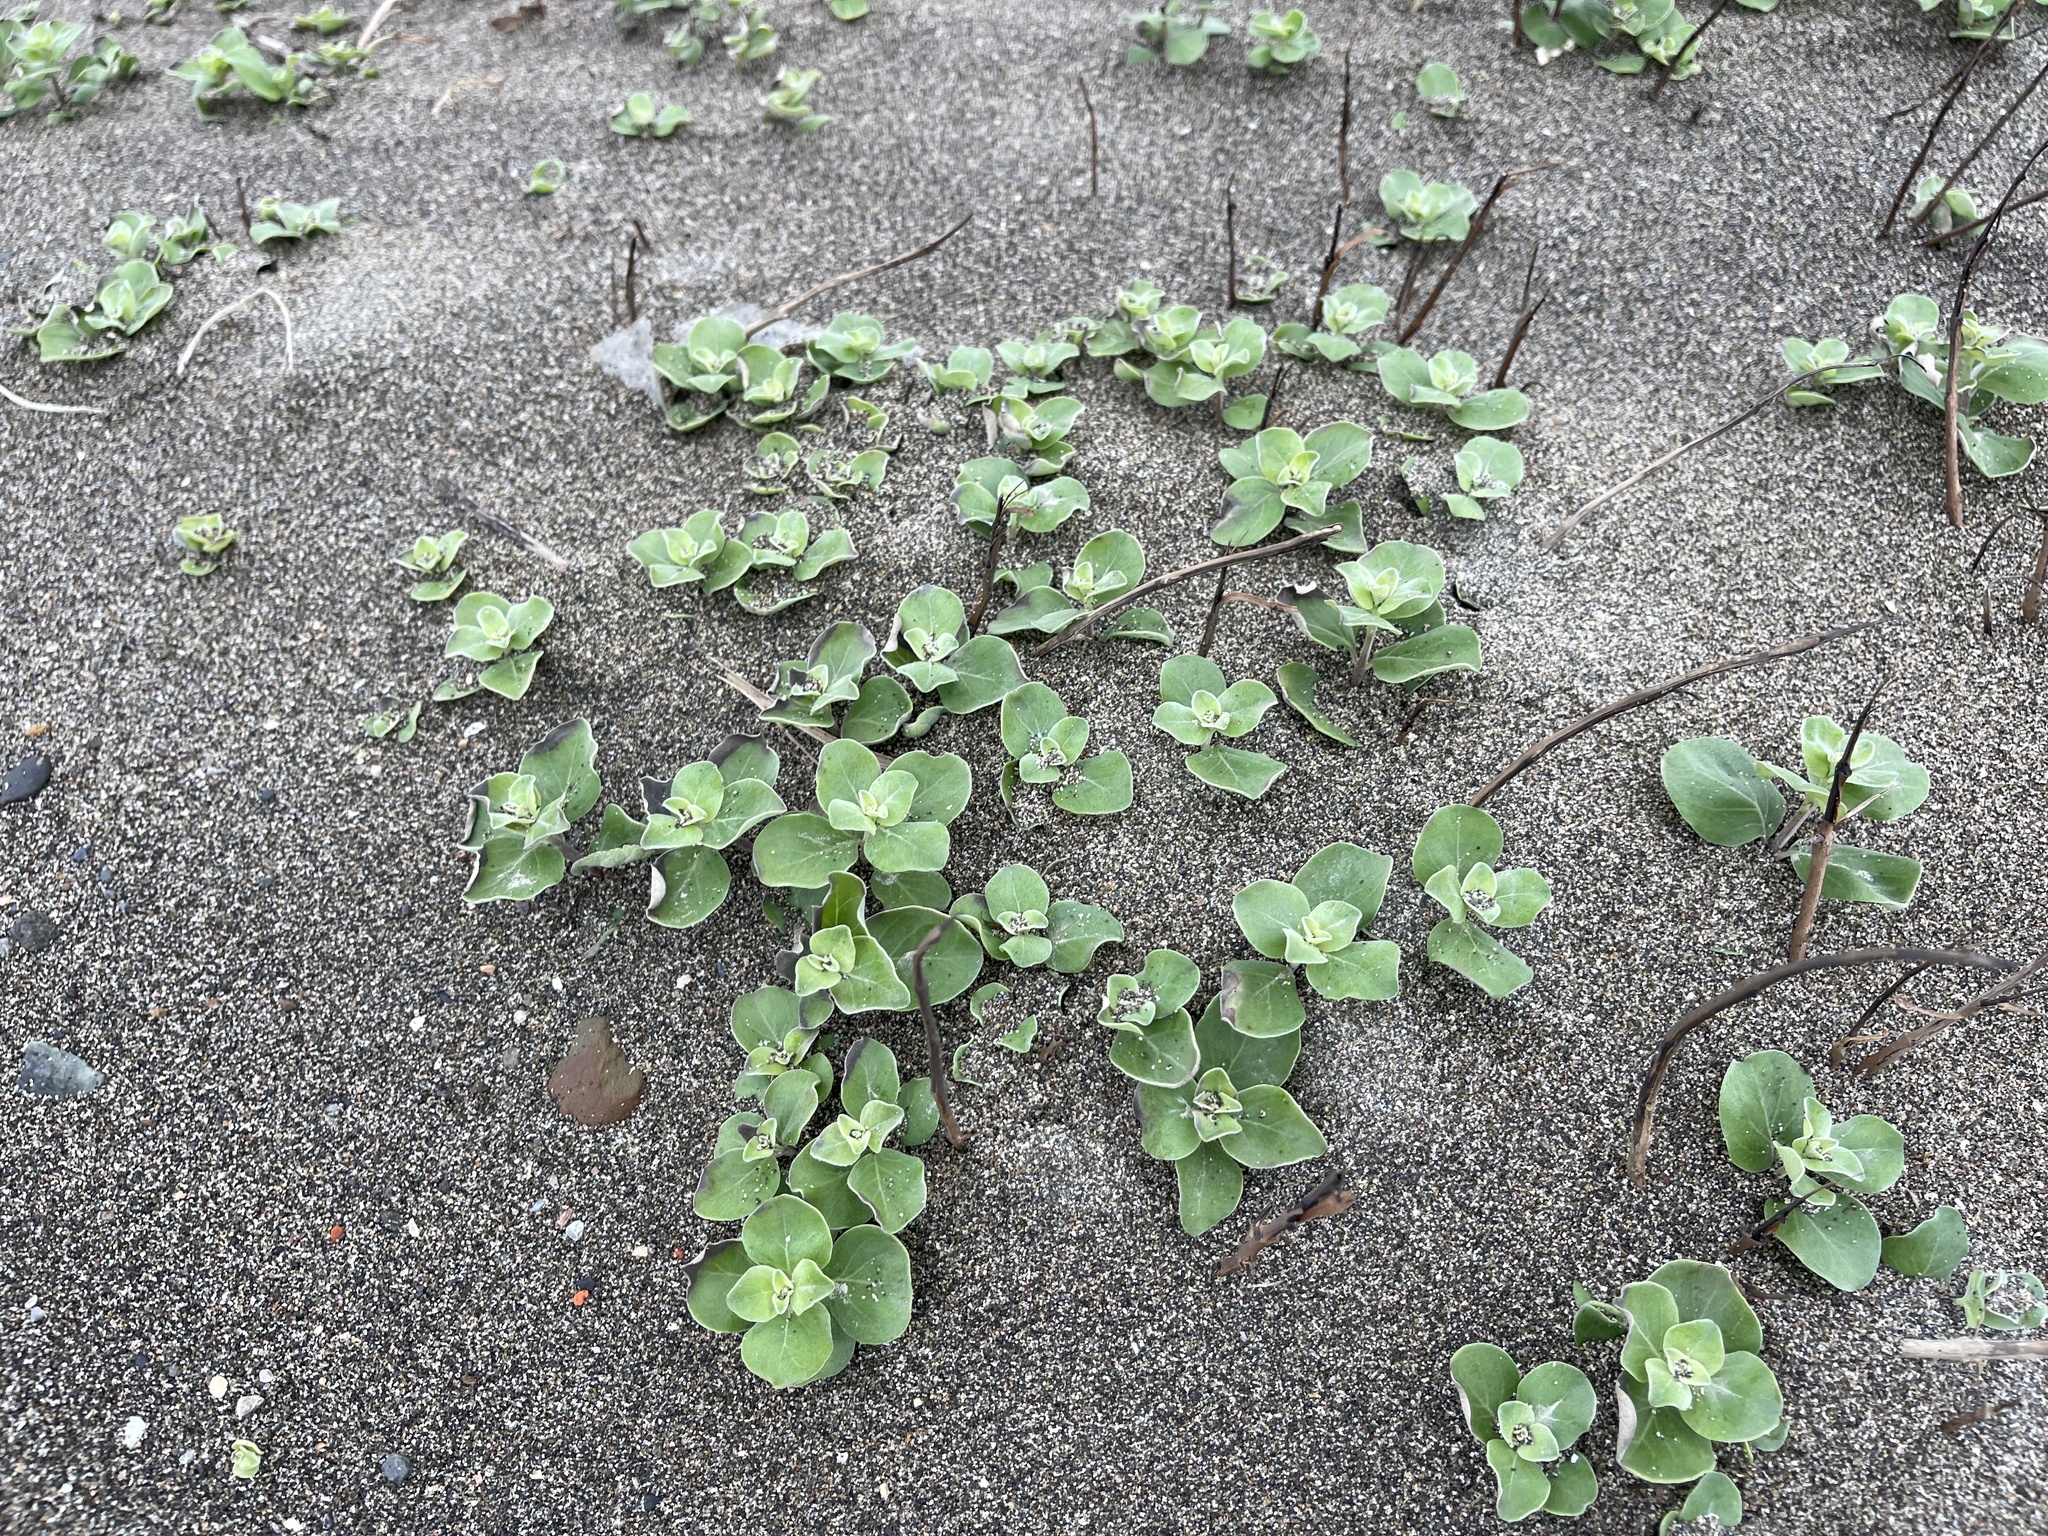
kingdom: Plantae
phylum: Tracheophyta
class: Magnoliopsida
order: Lamiales
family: Lamiaceae
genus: Vitex
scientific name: Vitex rotundifolia
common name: Beach vitex
